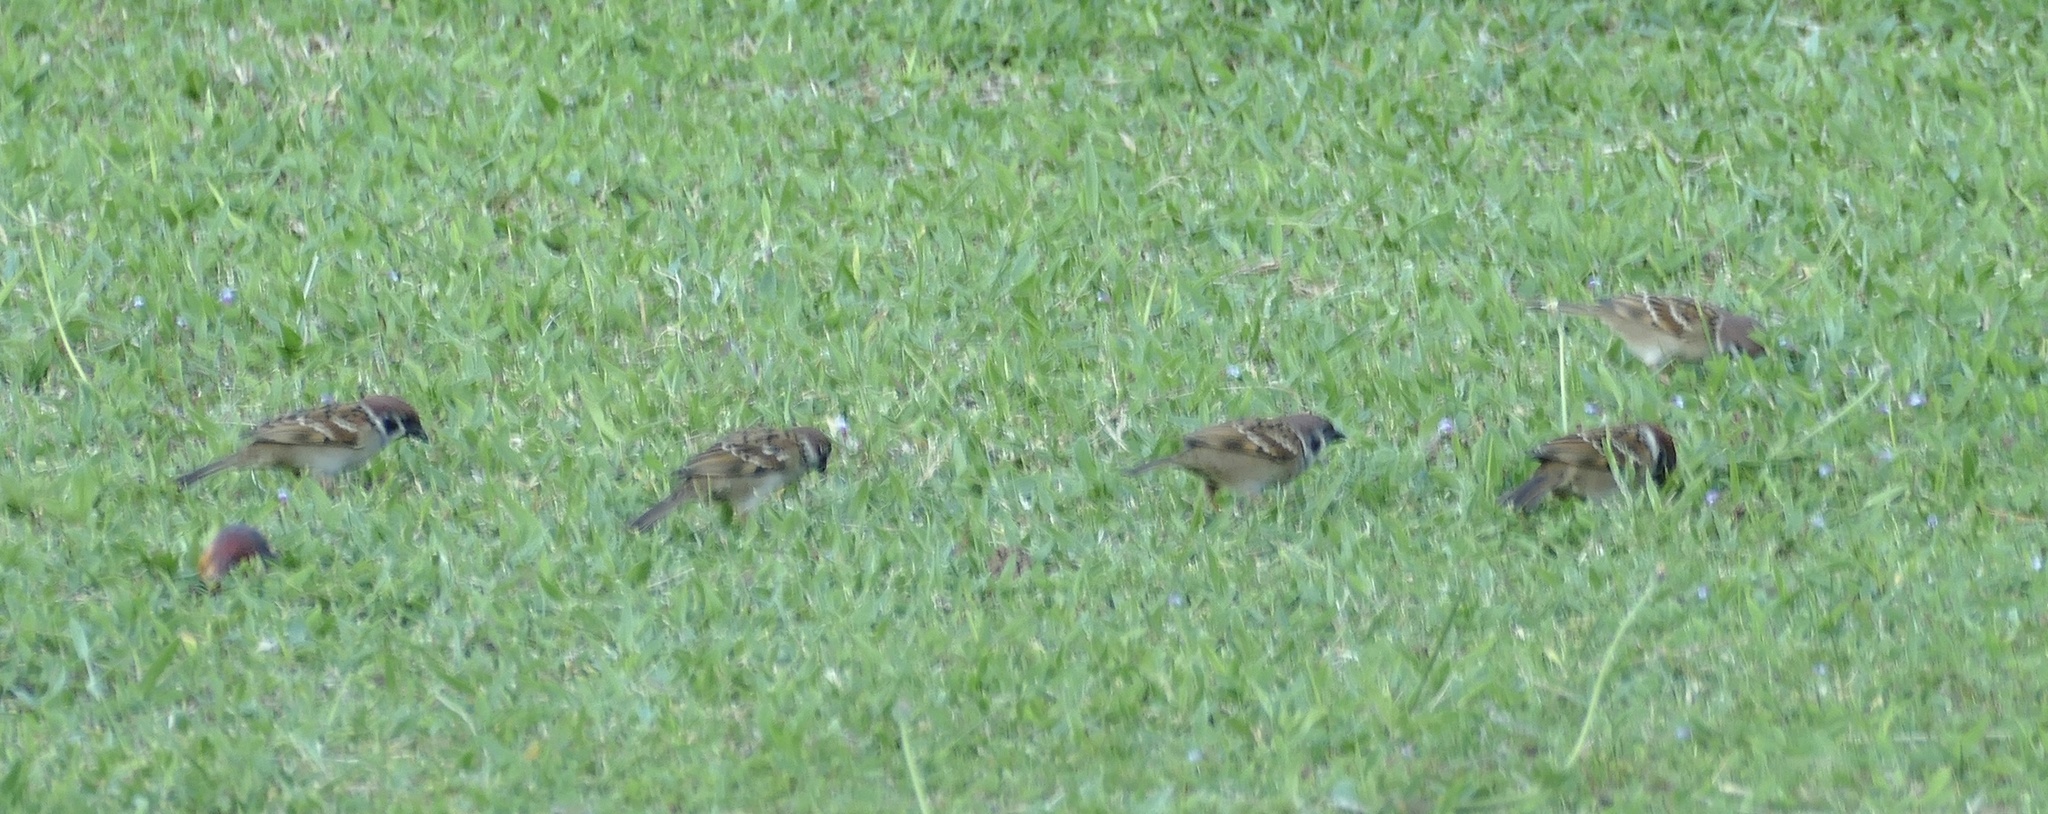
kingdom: Animalia
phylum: Chordata
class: Aves
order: Passeriformes
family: Passeridae
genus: Passer
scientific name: Passer montanus
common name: Eurasian tree sparrow
